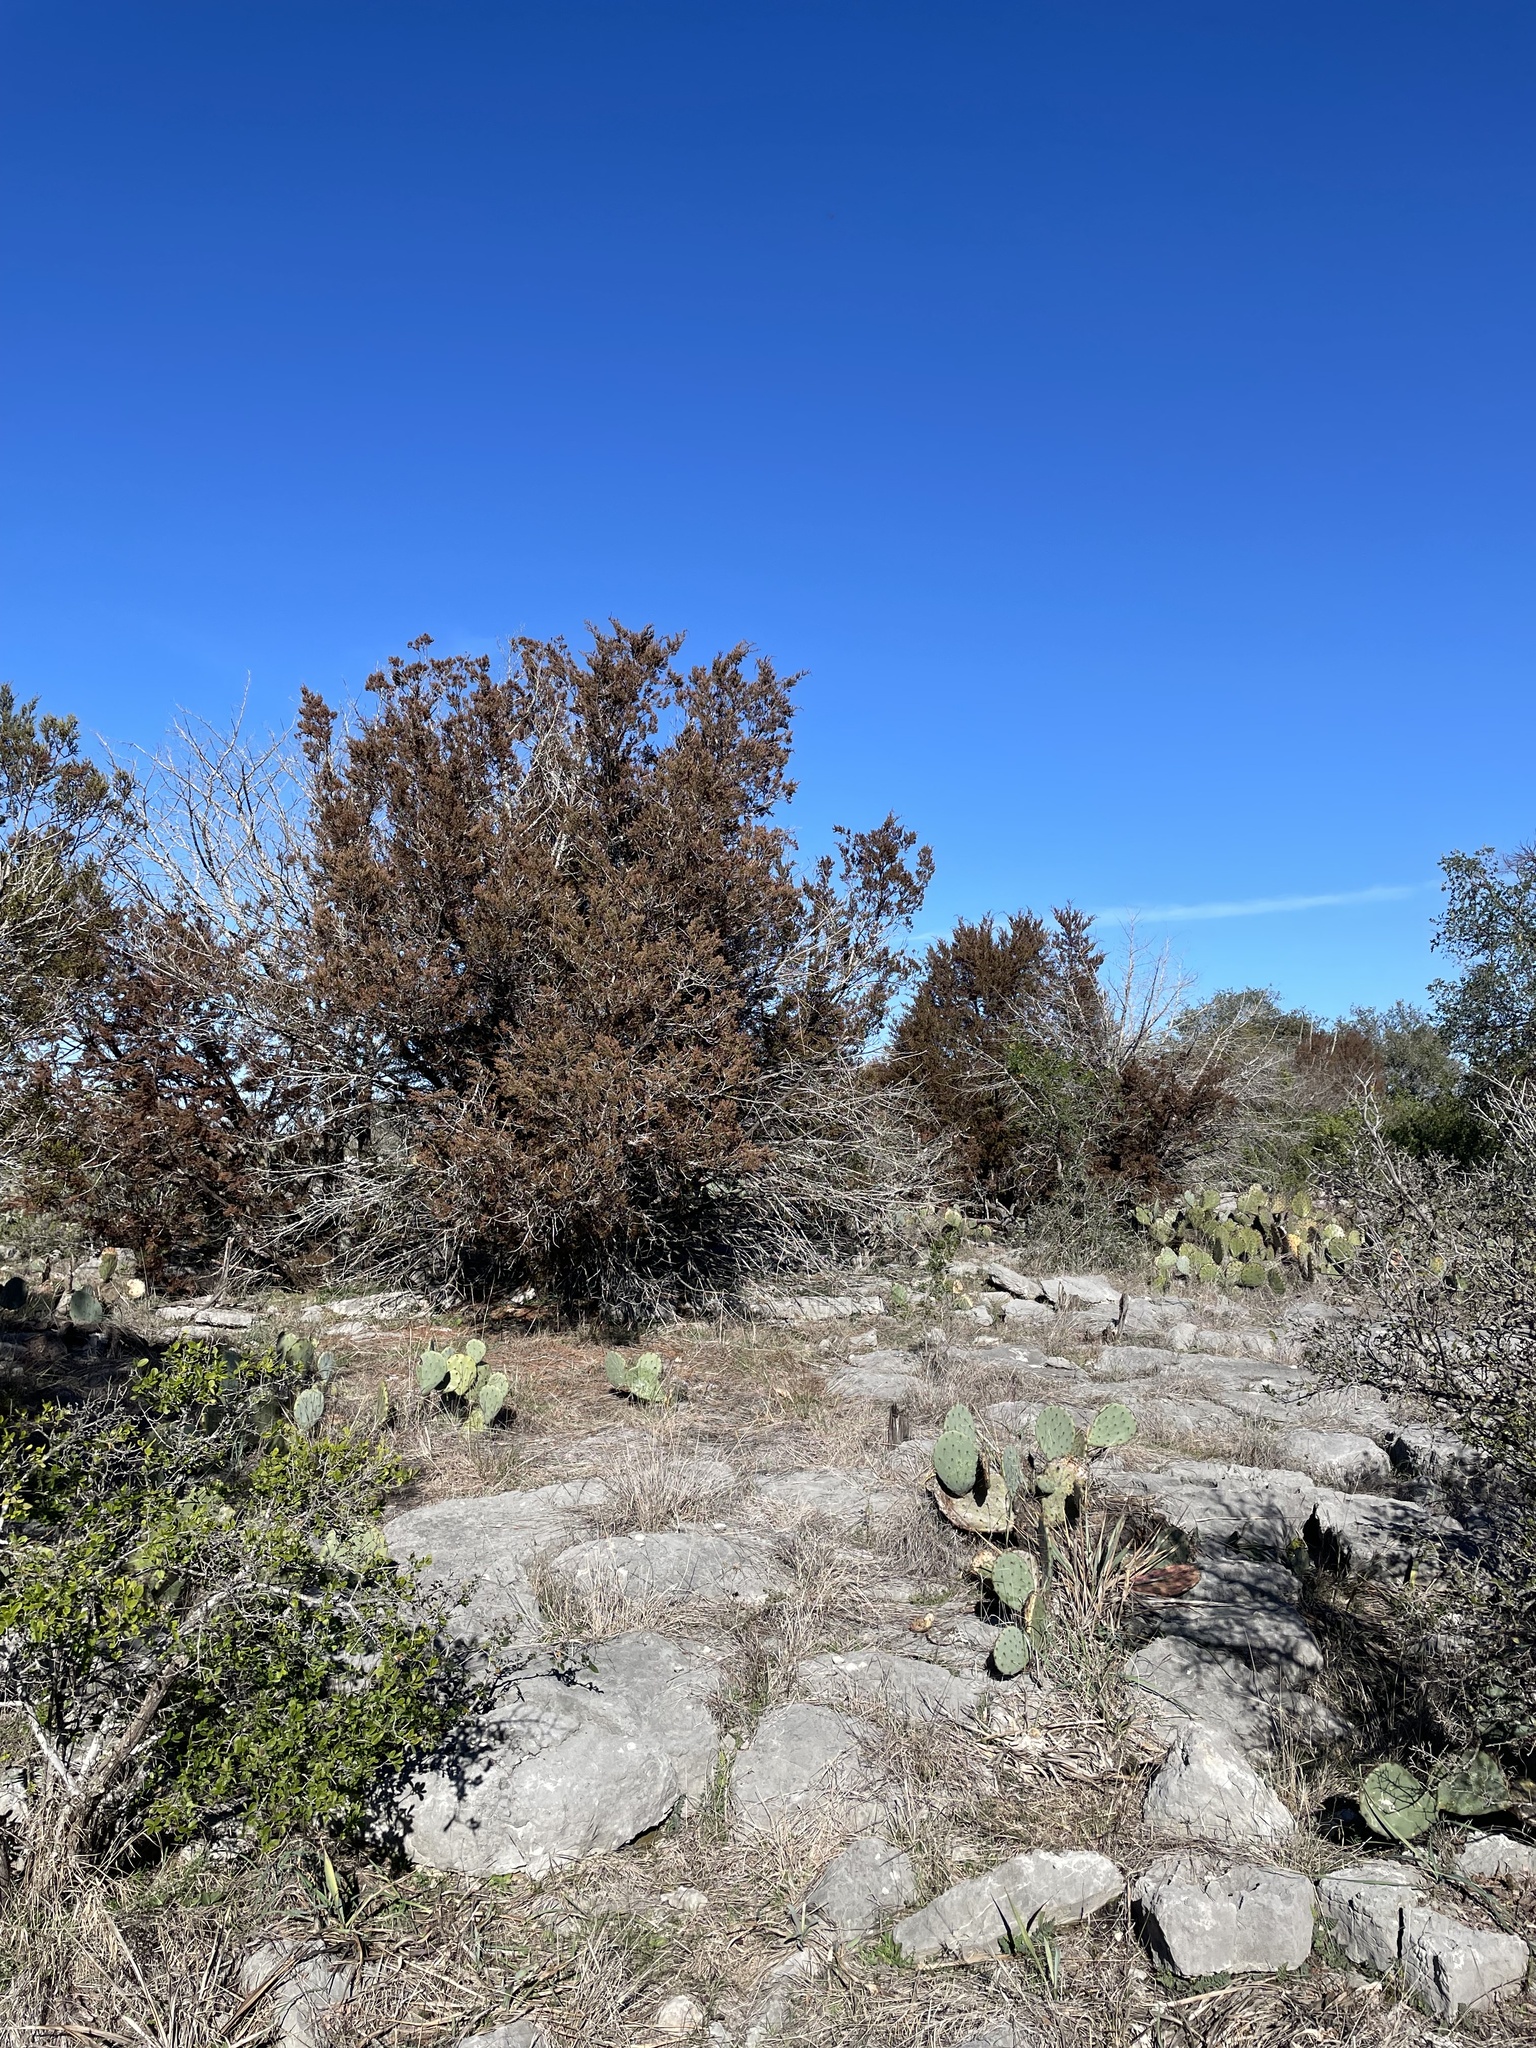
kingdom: Plantae
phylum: Tracheophyta
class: Pinopsida
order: Pinales
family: Cupressaceae
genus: Juniperus
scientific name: Juniperus ashei
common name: Mexican juniper
